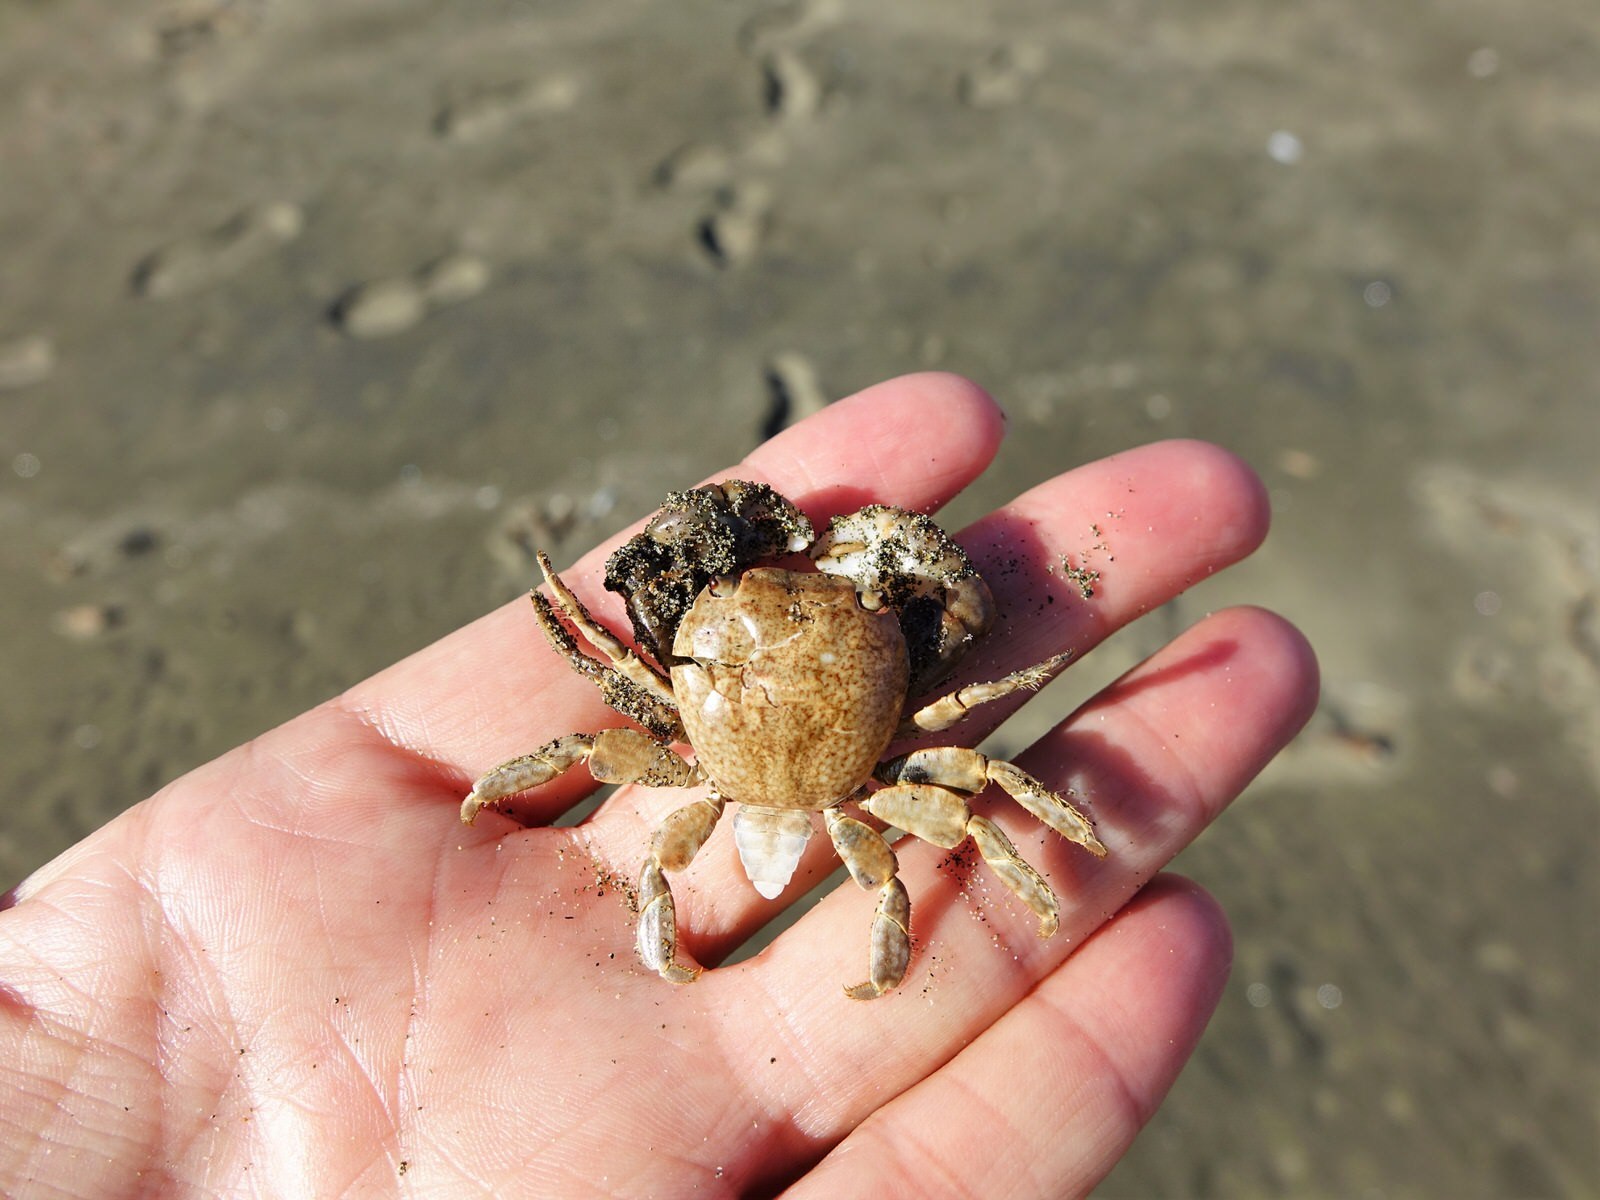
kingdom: Animalia
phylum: Arthropoda
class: Malacostraca
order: Decapoda
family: Grapsidae
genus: Planes
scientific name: Planes minutus
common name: Gulf weed crab
